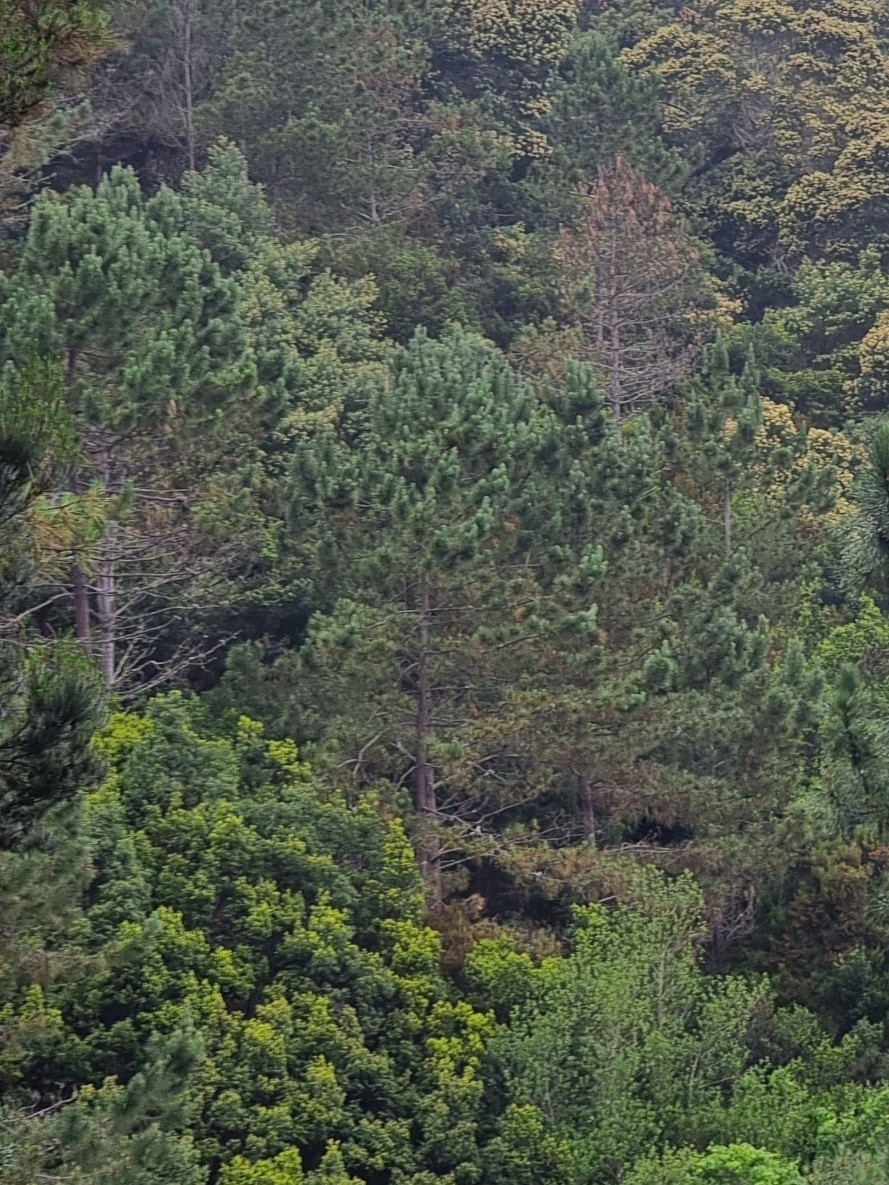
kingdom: Plantae
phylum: Tracheophyta
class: Pinopsida
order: Pinales
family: Pinaceae
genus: Pinus
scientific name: Pinus pinaster
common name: Maritime pine
